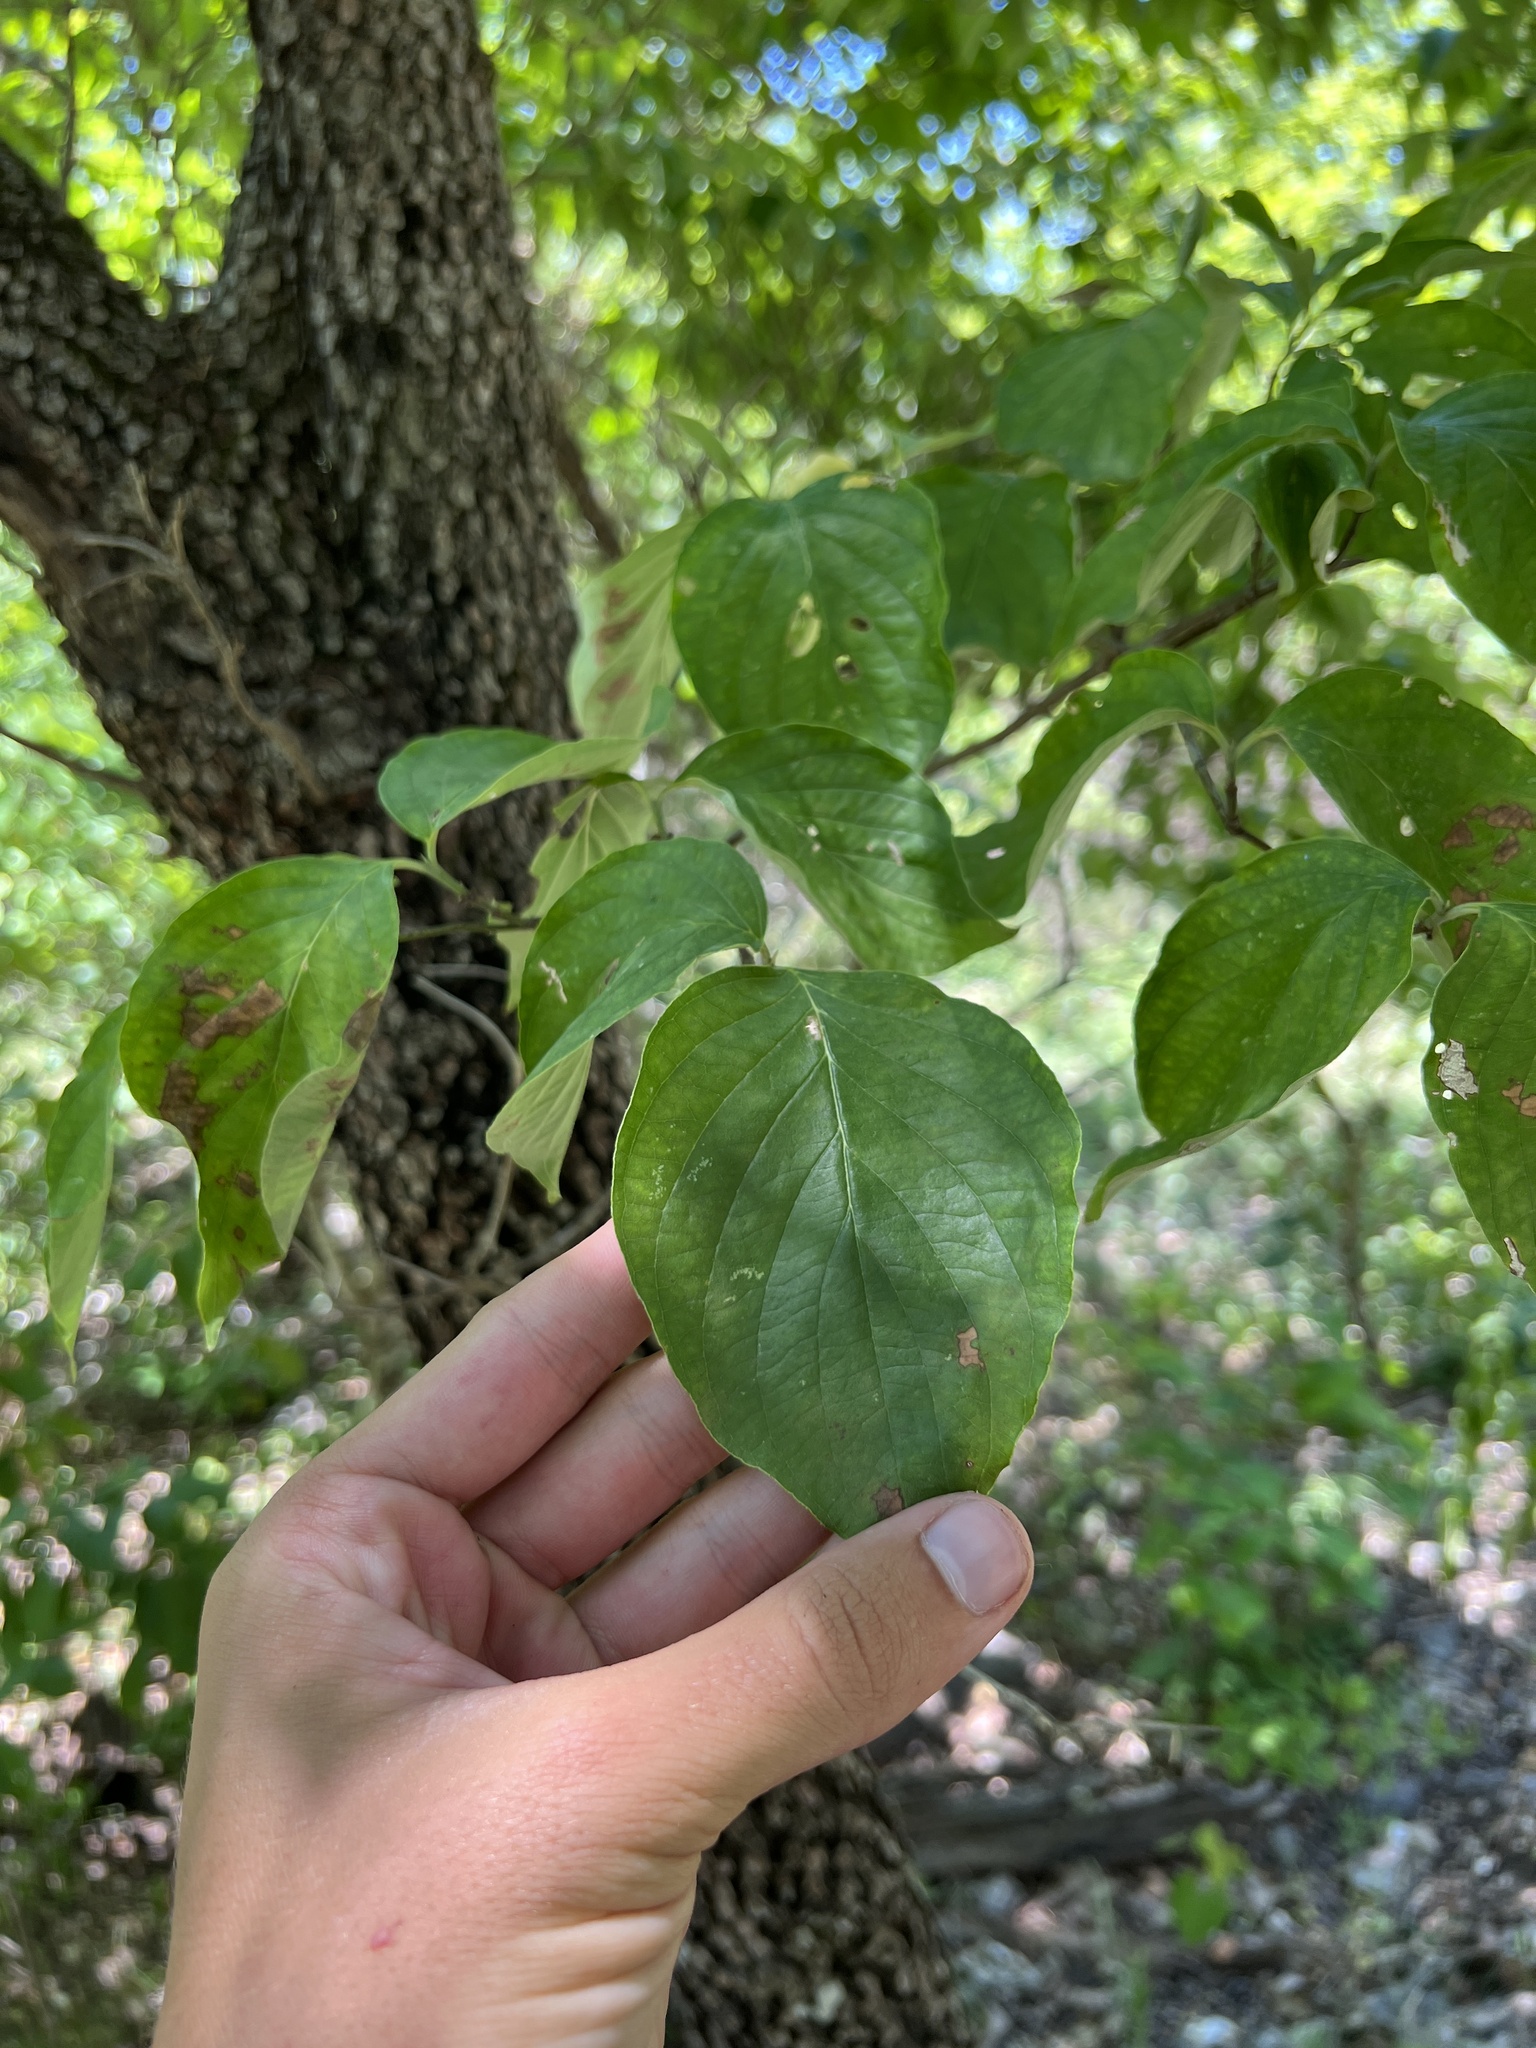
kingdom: Plantae
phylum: Tracheophyta
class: Magnoliopsida
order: Cornales
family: Cornaceae
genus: Cornus
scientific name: Cornus florida
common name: Flowering dogwood
